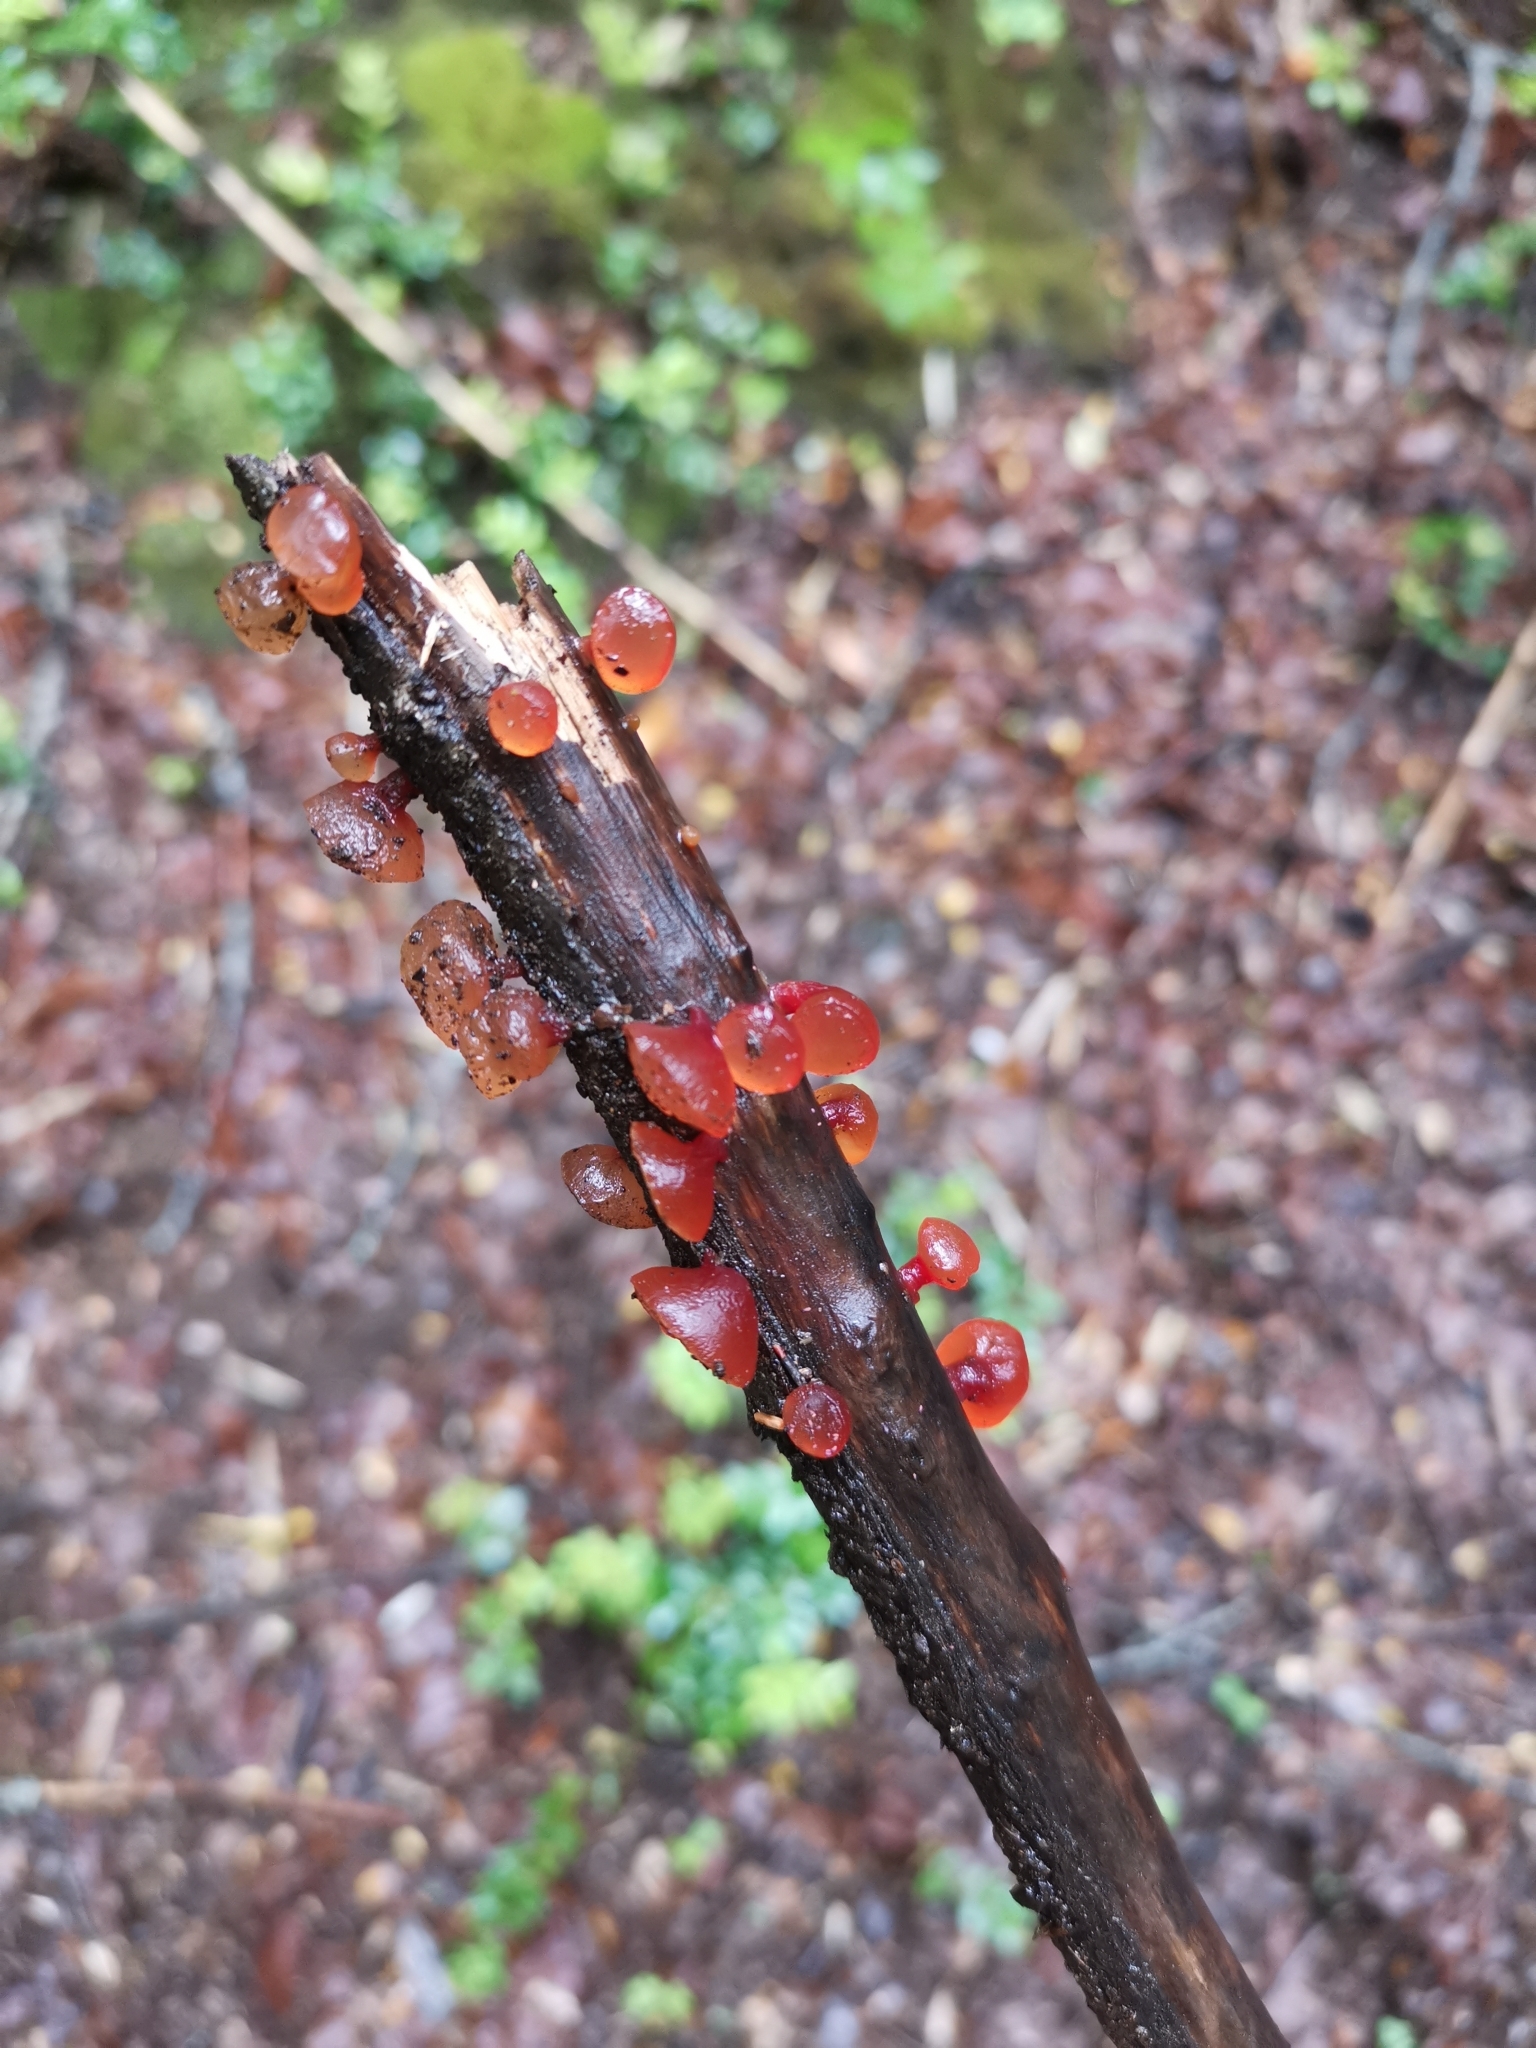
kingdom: Fungi
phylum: Basidiomycota
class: Dacrymycetes
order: Dacrymycetales
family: Dacrymycetaceae
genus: Guepiniopsis
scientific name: Guepiniopsis alpina
